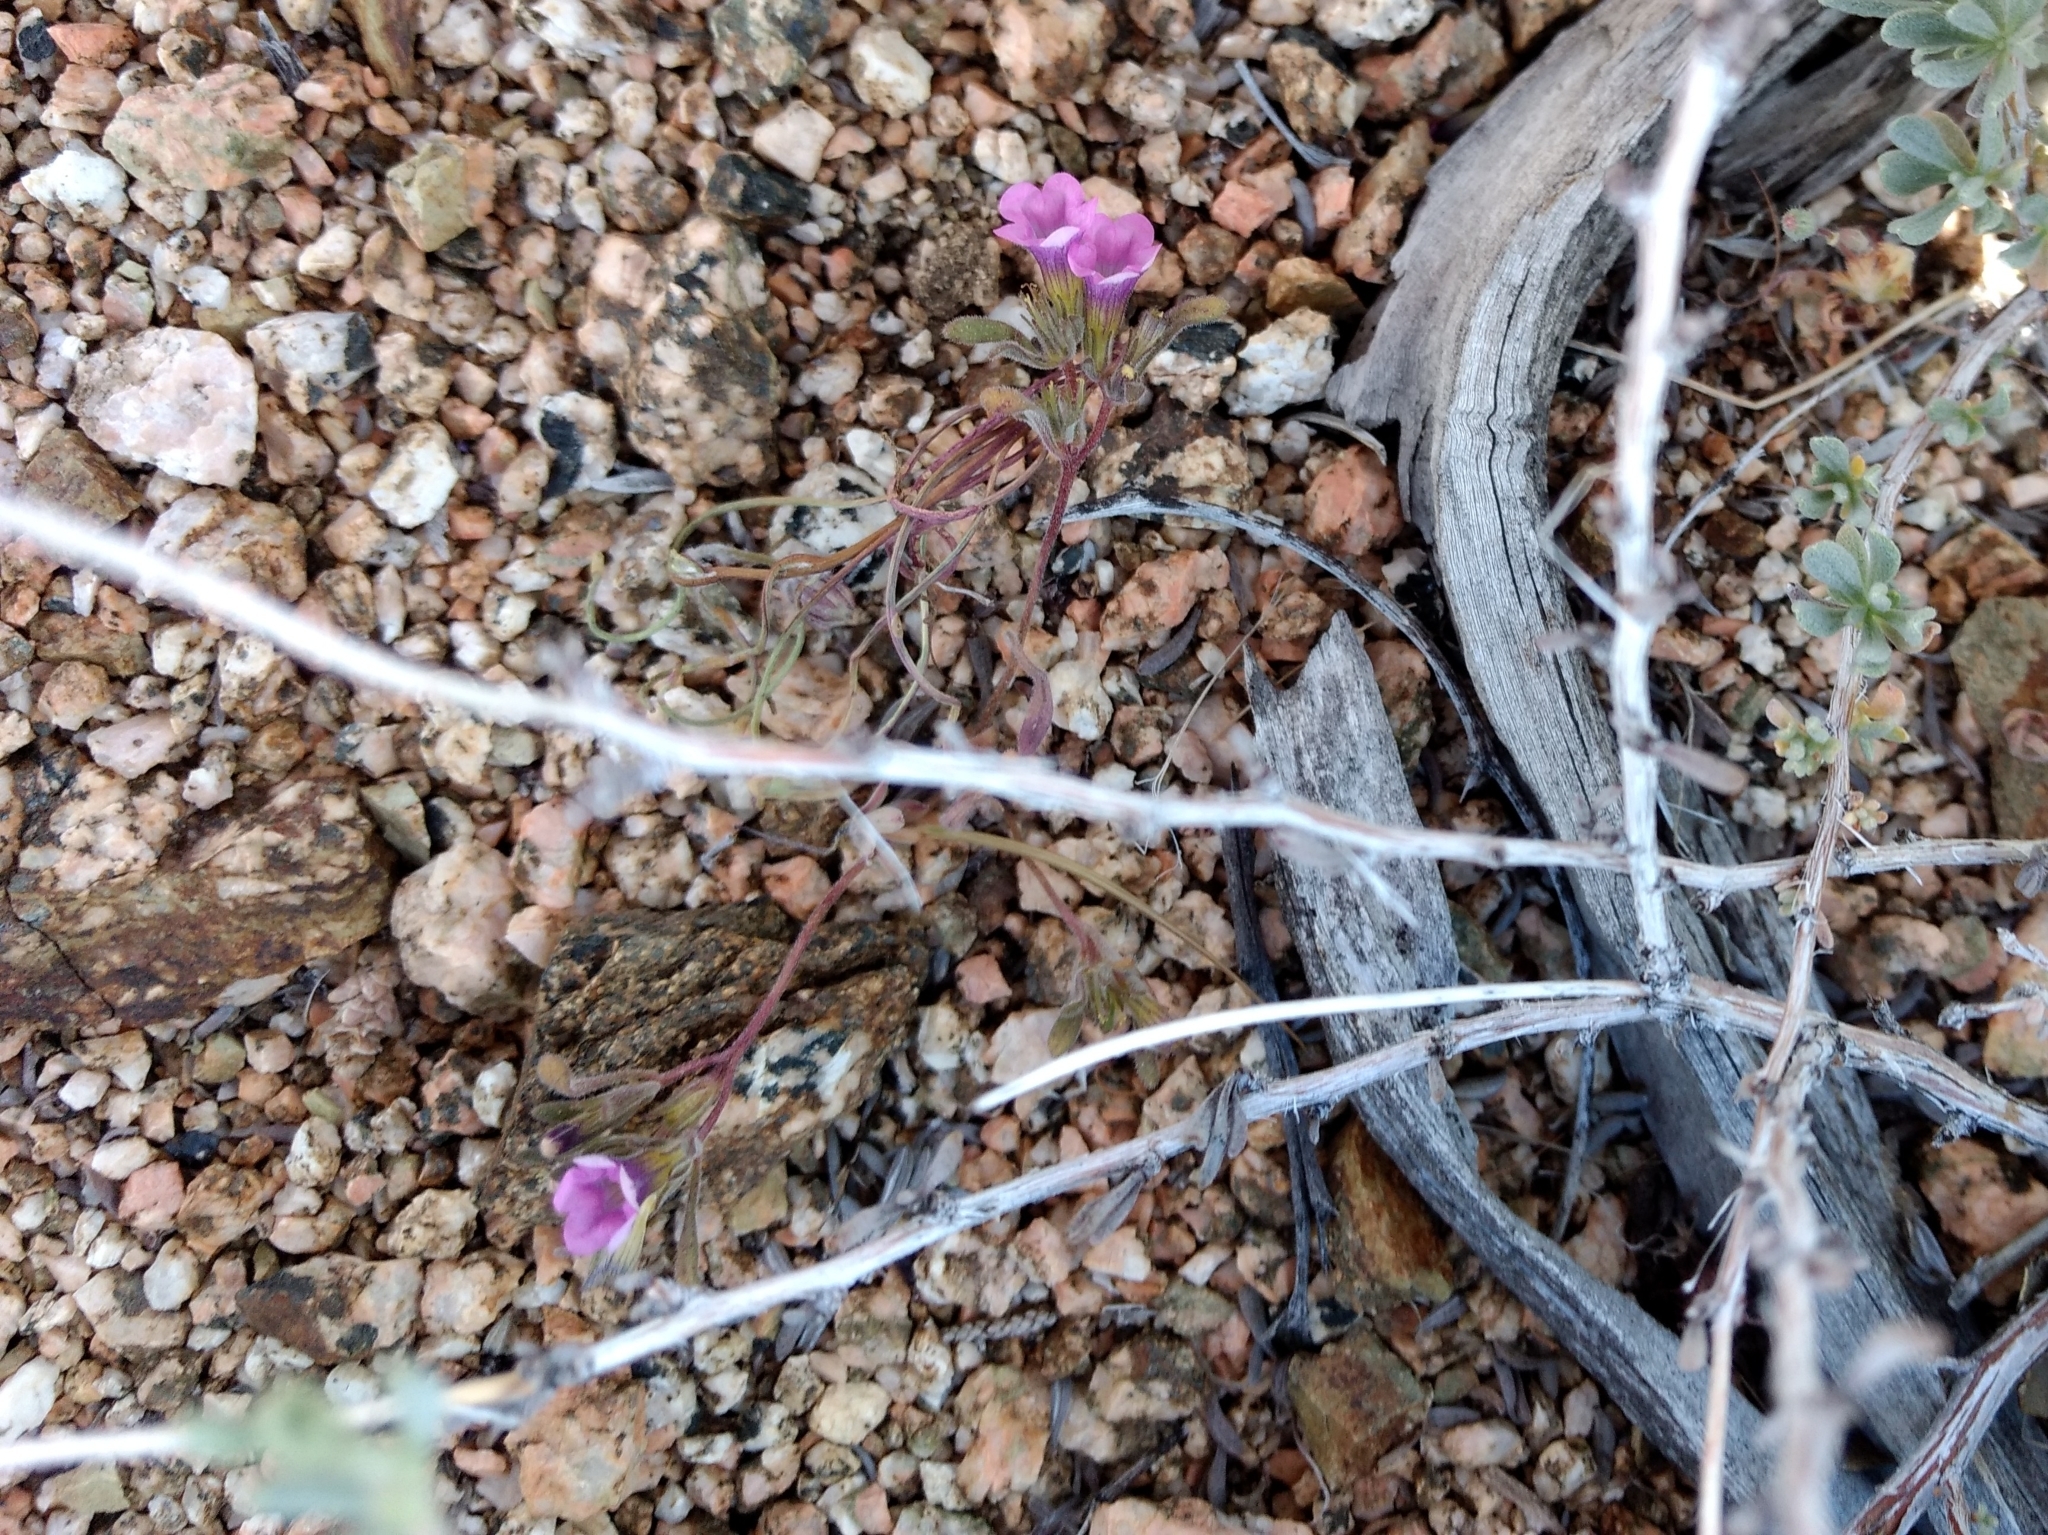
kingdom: Plantae
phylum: Tracheophyta
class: Magnoliopsida
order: Boraginales
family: Namaceae
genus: Nama
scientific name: Nama demissa
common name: Leafy nama
